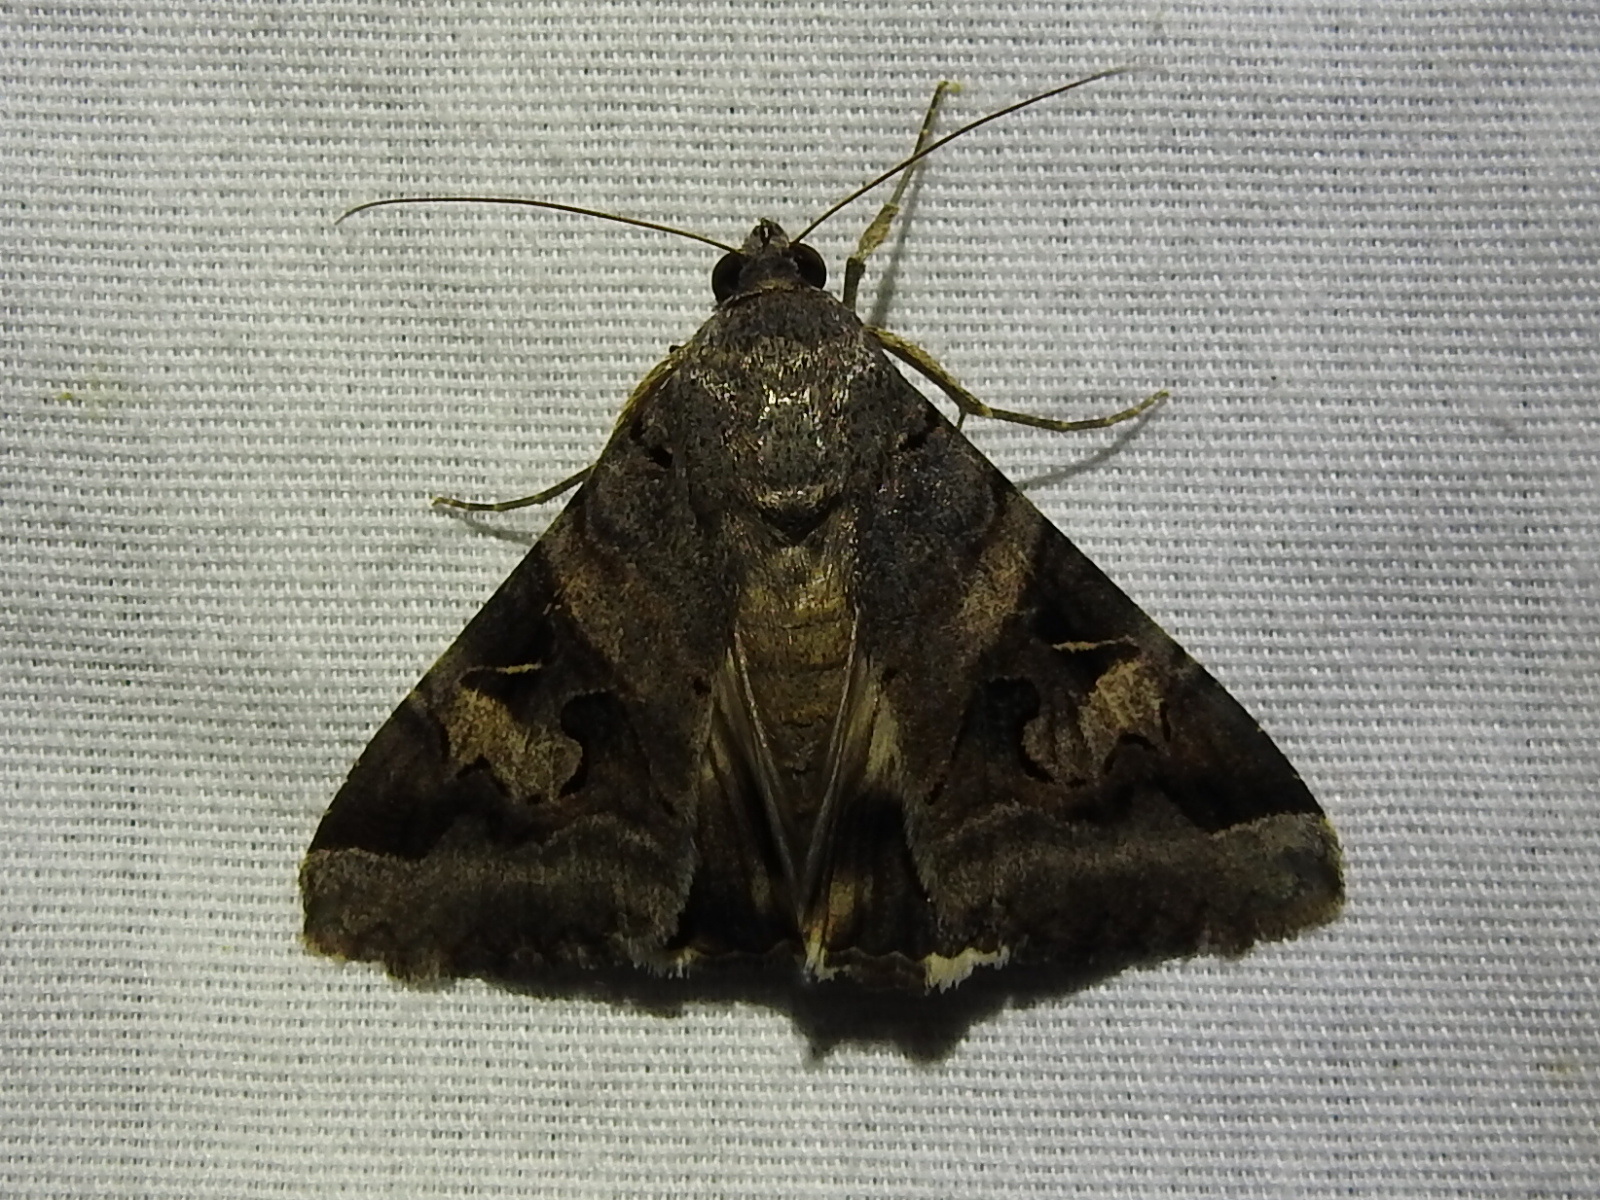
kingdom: Animalia
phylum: Arthropoda
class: Insecta
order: Lepidoptera
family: Erebidae
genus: Melipotis
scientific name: Melipotis indomita
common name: Moth
